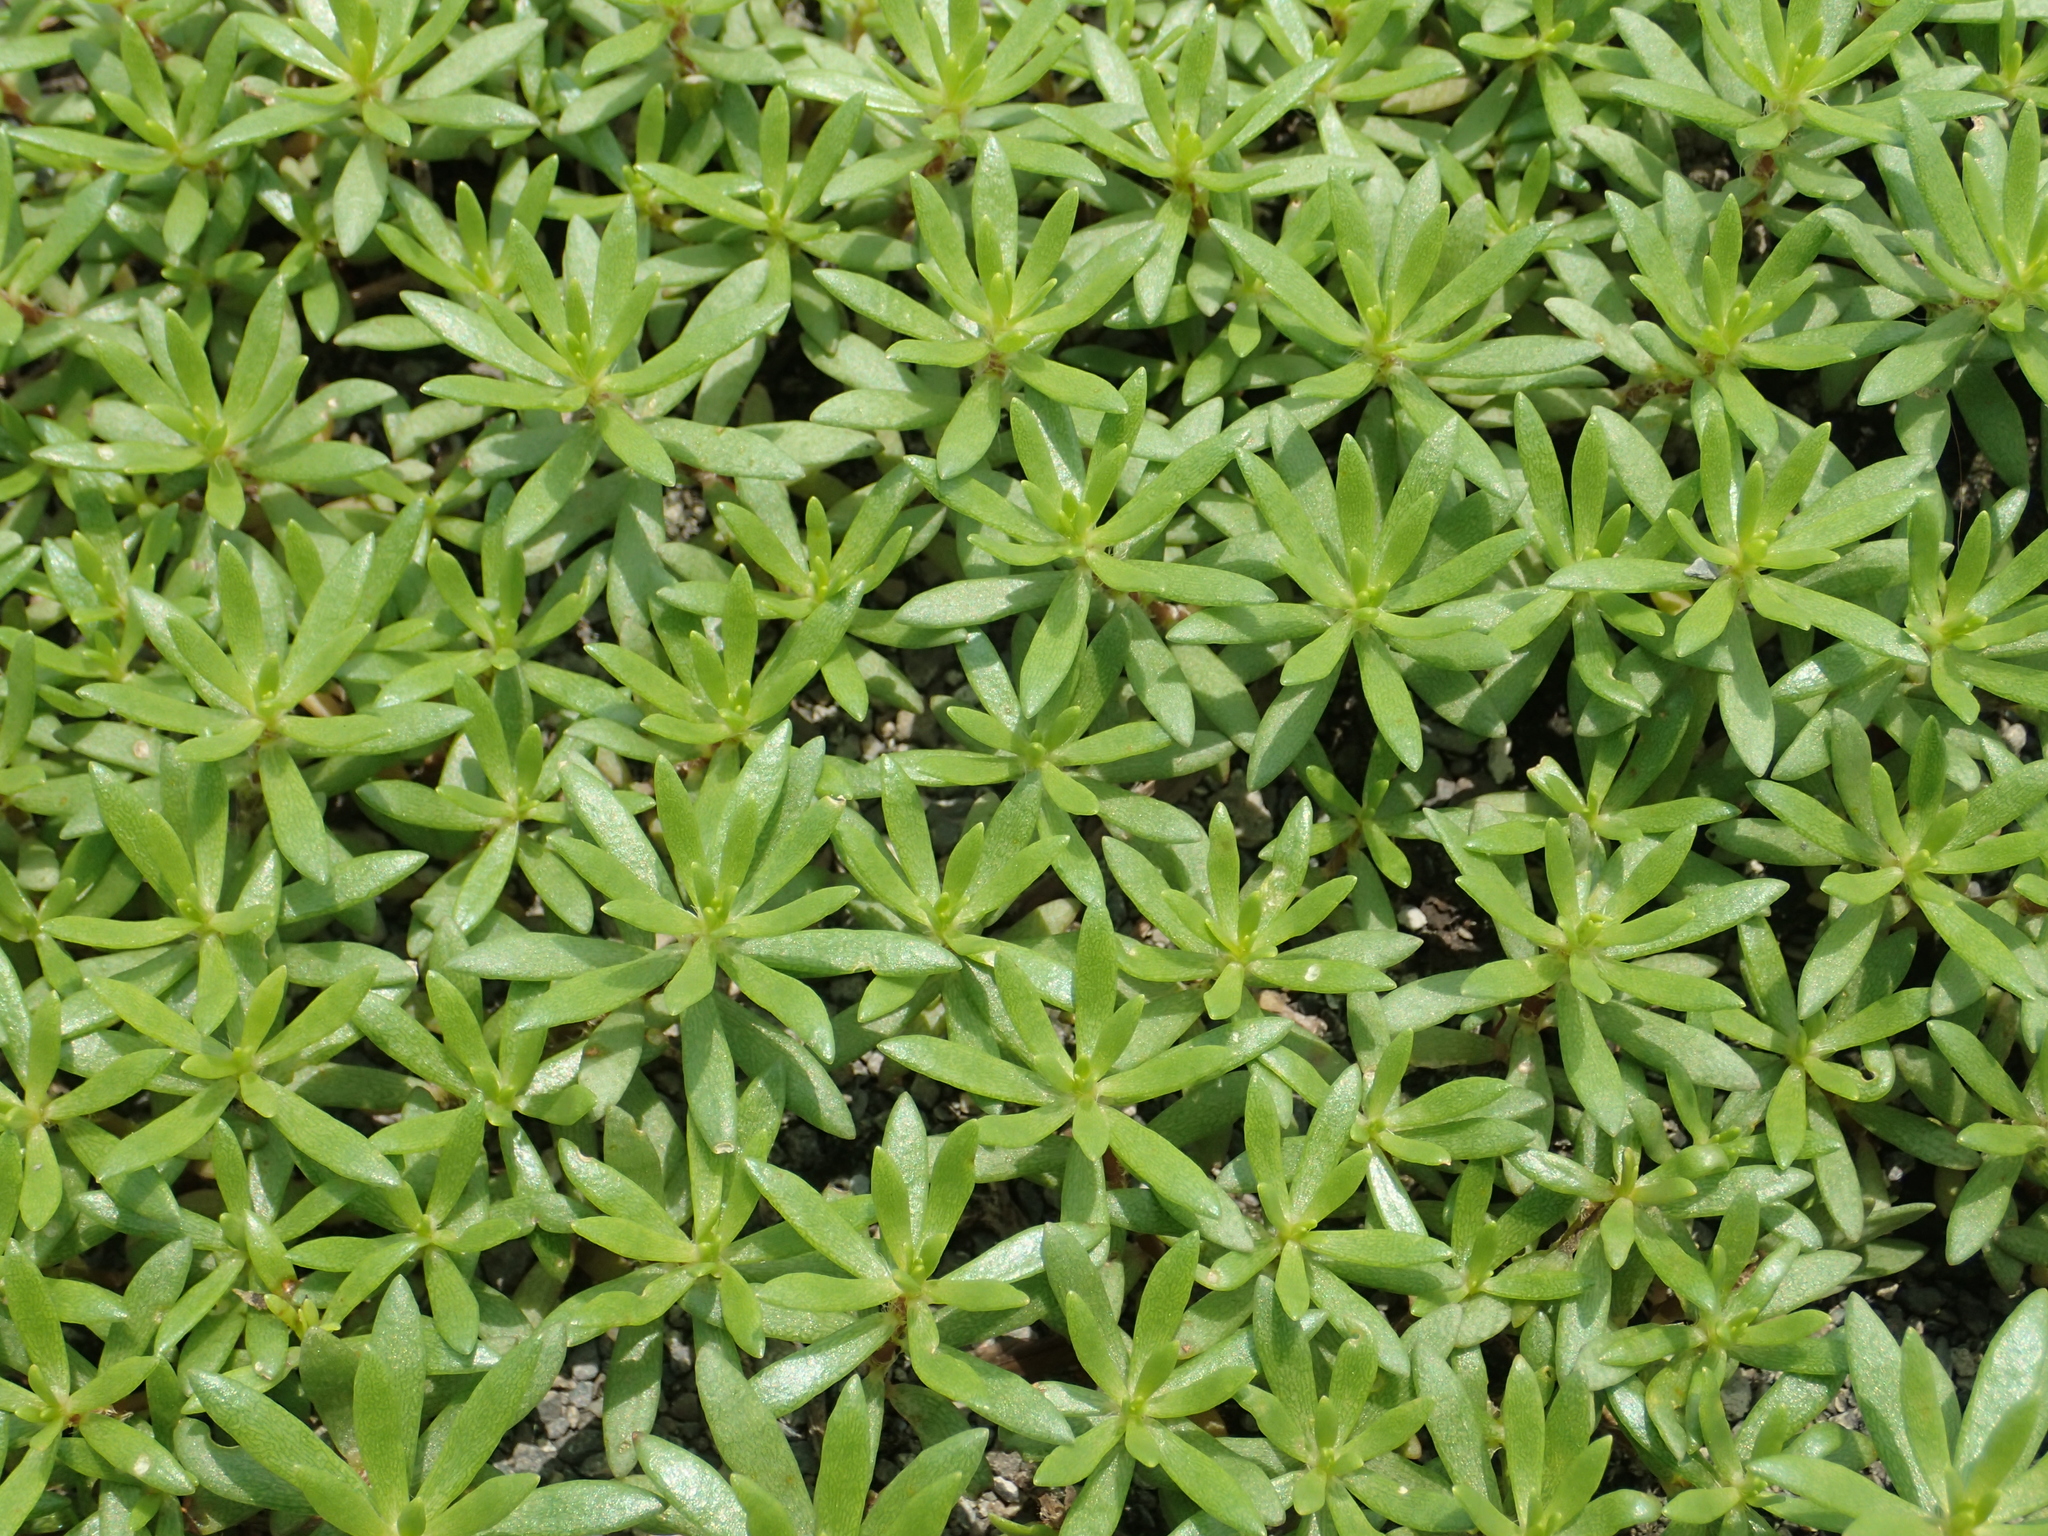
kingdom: Plantae
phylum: Tracheophyta
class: Magnoliopsida
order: Caryophyllales
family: Portulacaceae
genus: Portulaca
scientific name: Portulaca pilosa
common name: Kiss me quick
